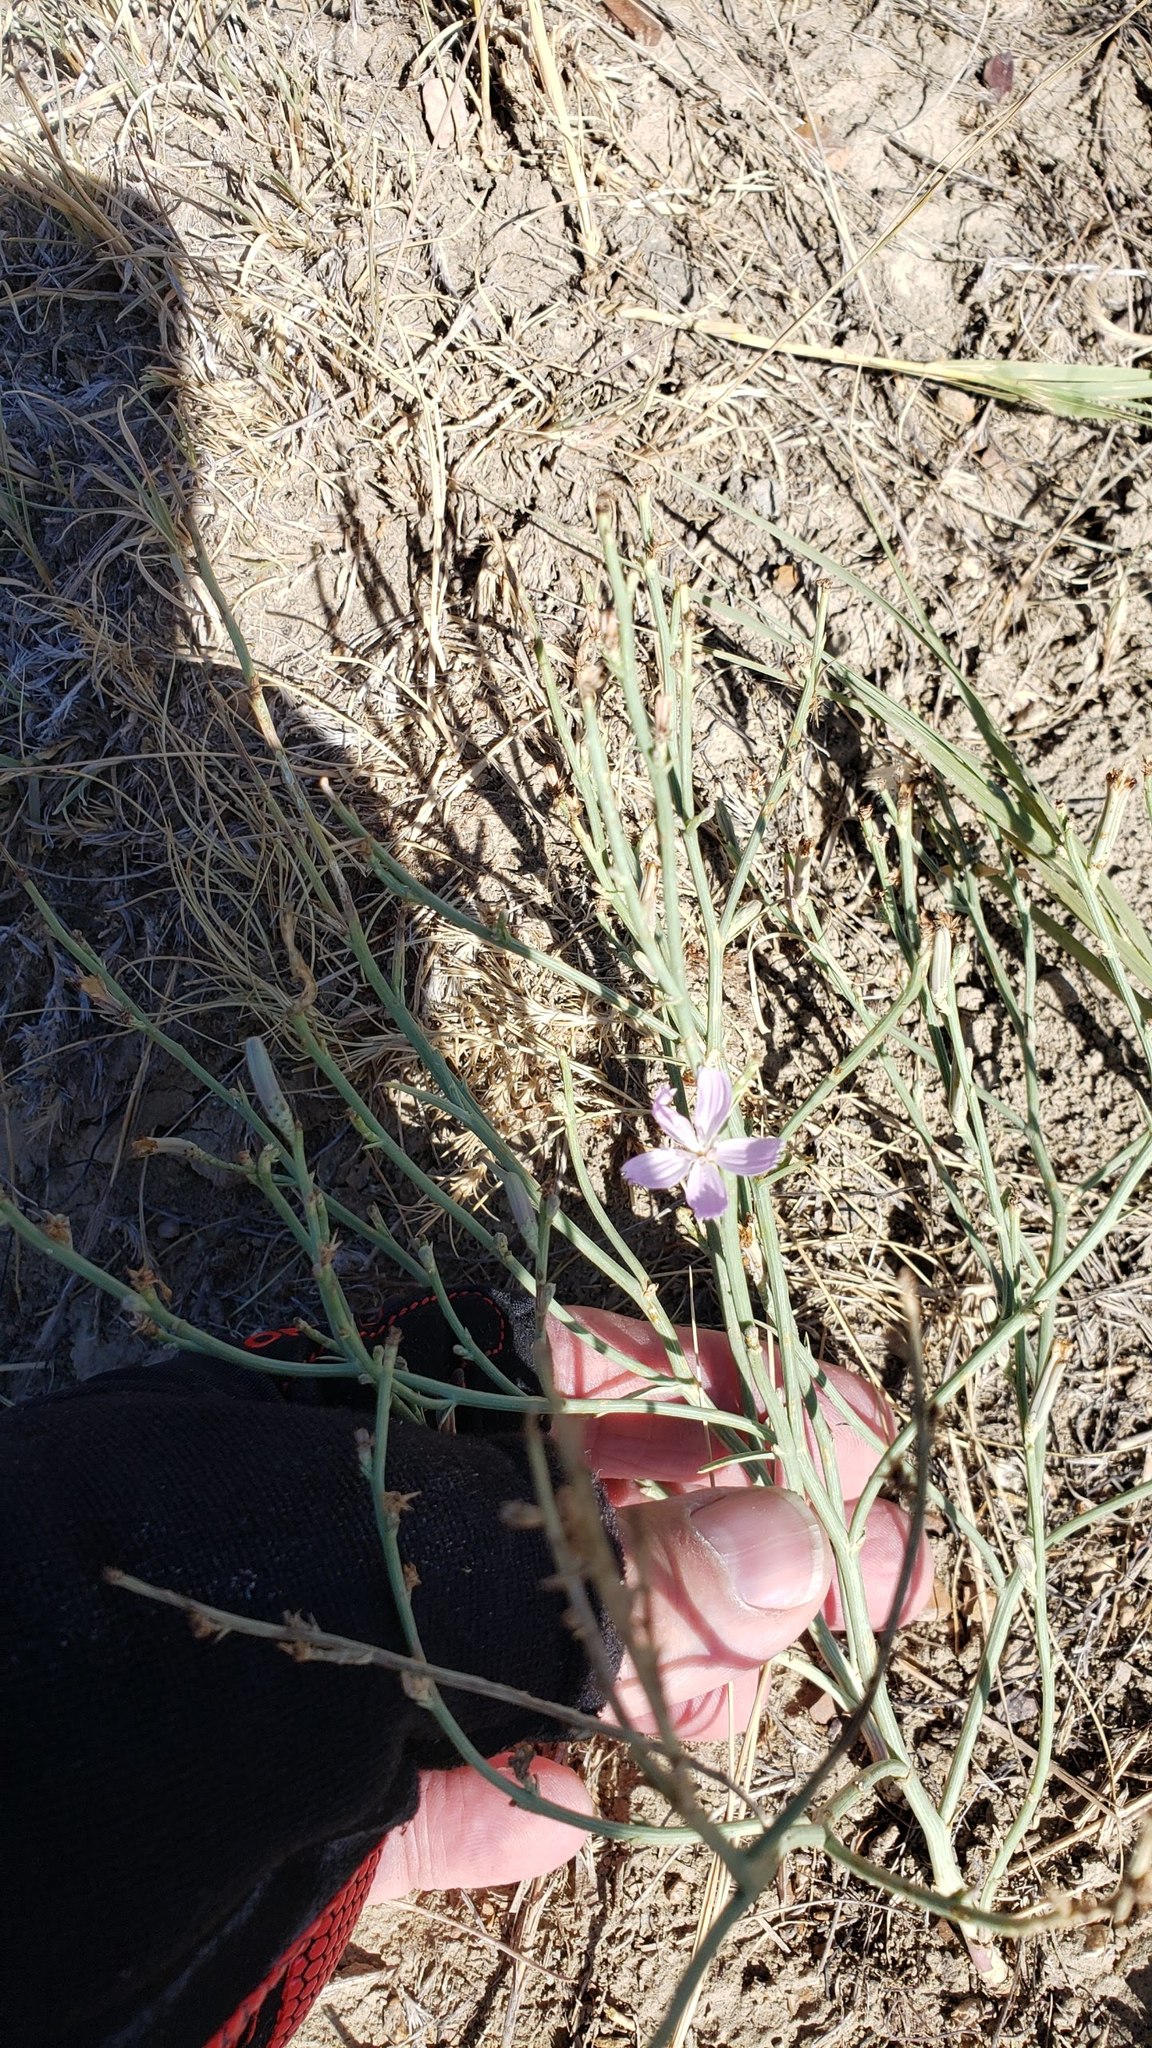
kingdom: Plantae
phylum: Tracheophyta
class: Magnoliopsida
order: Asterales
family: Asteraceae
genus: Lygodesmia
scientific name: Lygodesmia juncea
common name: Common skeletonweed
